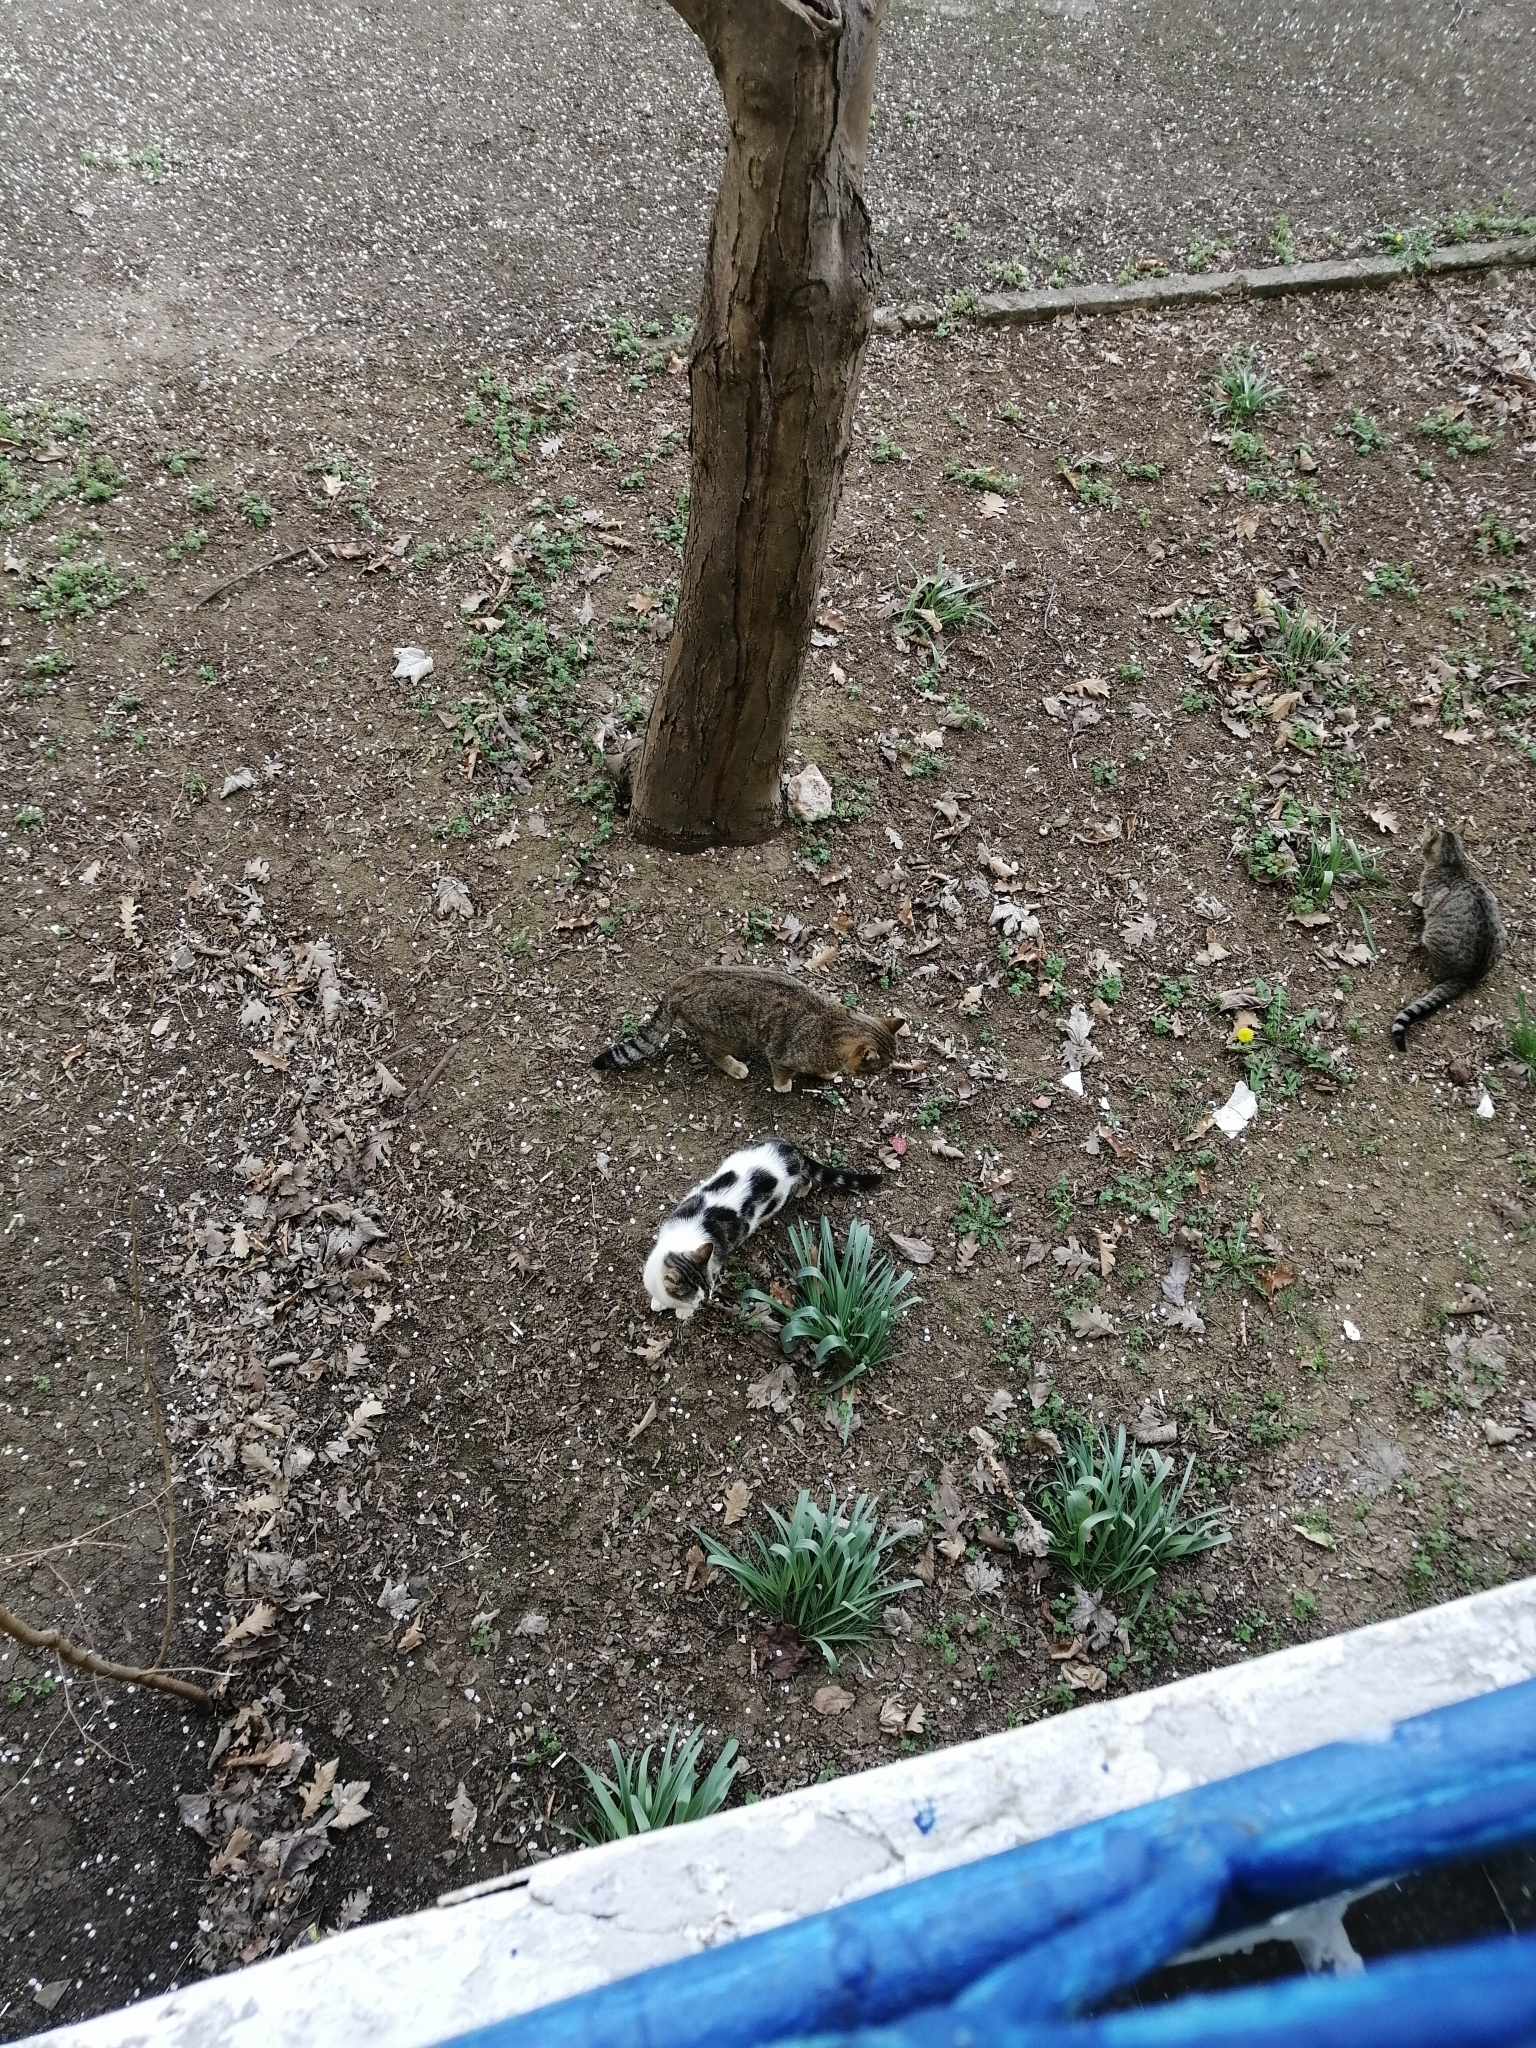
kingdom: Animalia
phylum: Chordata
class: Mammalia
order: Carnivora
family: Felidae
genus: Felis
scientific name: Felis catus
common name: Domestic cat
